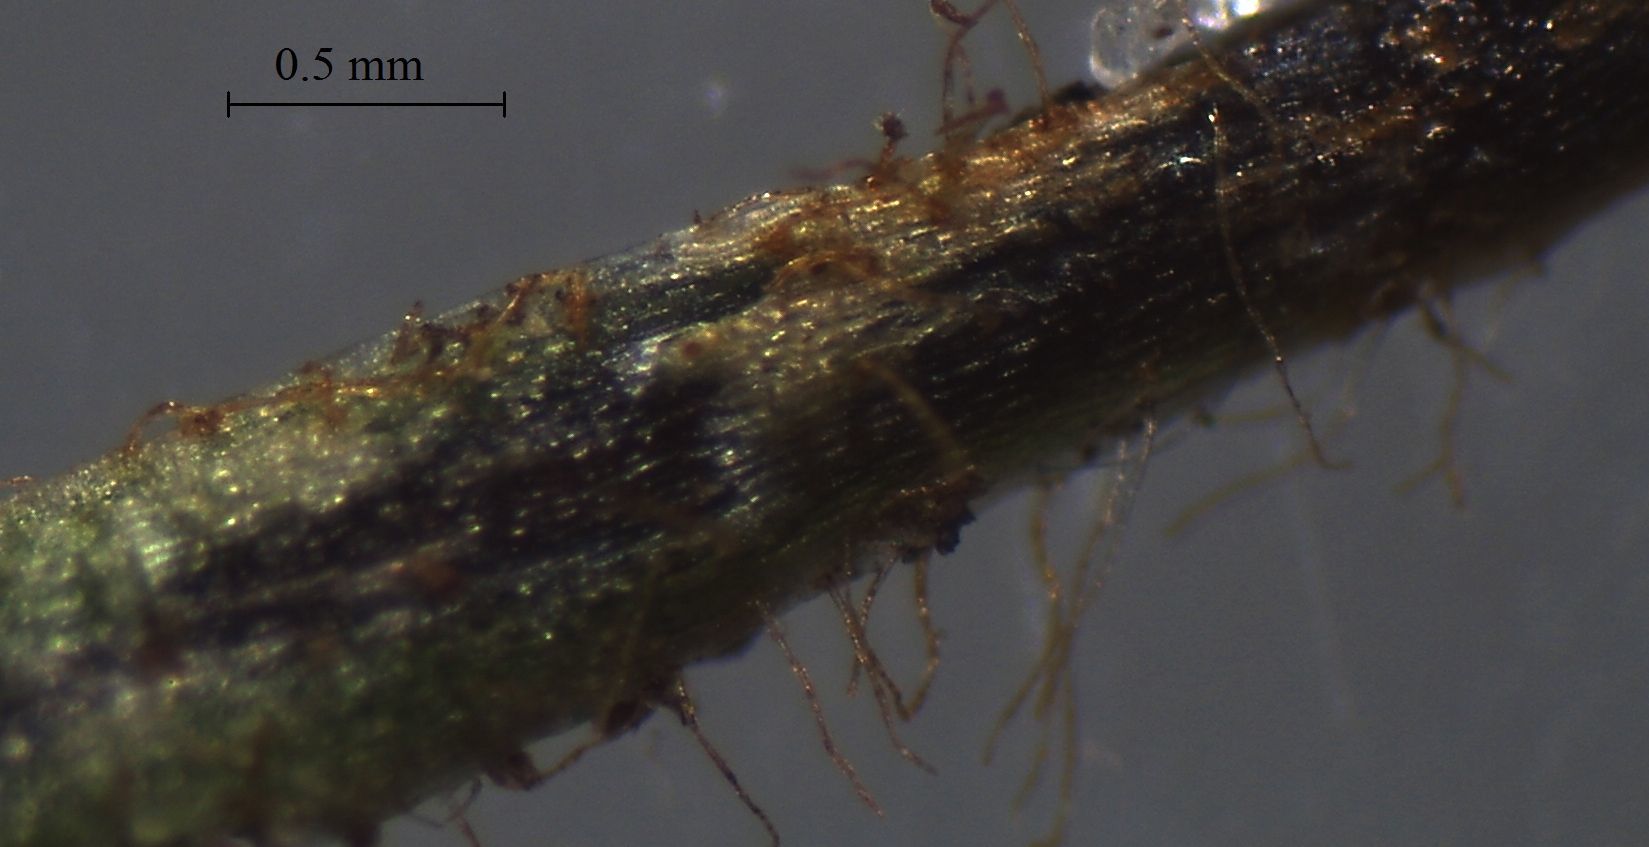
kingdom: Plantae
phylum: Tracheophyta
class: Polypodiopsida
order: Polypodiales
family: Polypodiaceae
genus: Notogrammitis
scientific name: Notogrammitis billardierei
